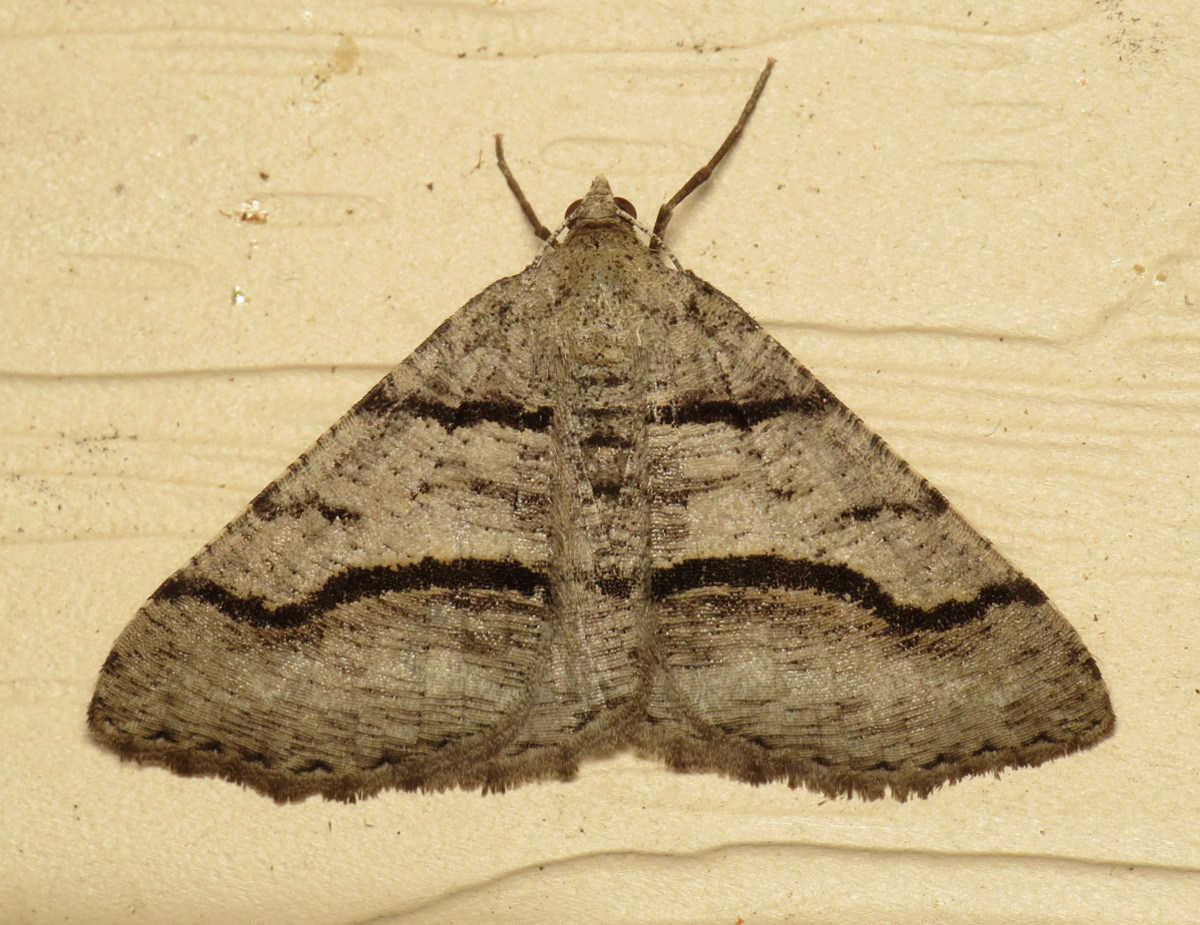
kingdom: Animalia
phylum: Arthropoda
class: Insecta
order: Lepidoptera
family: Geometridae
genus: Digrammia
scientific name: Digrammia continuata
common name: Curve-lined angle
